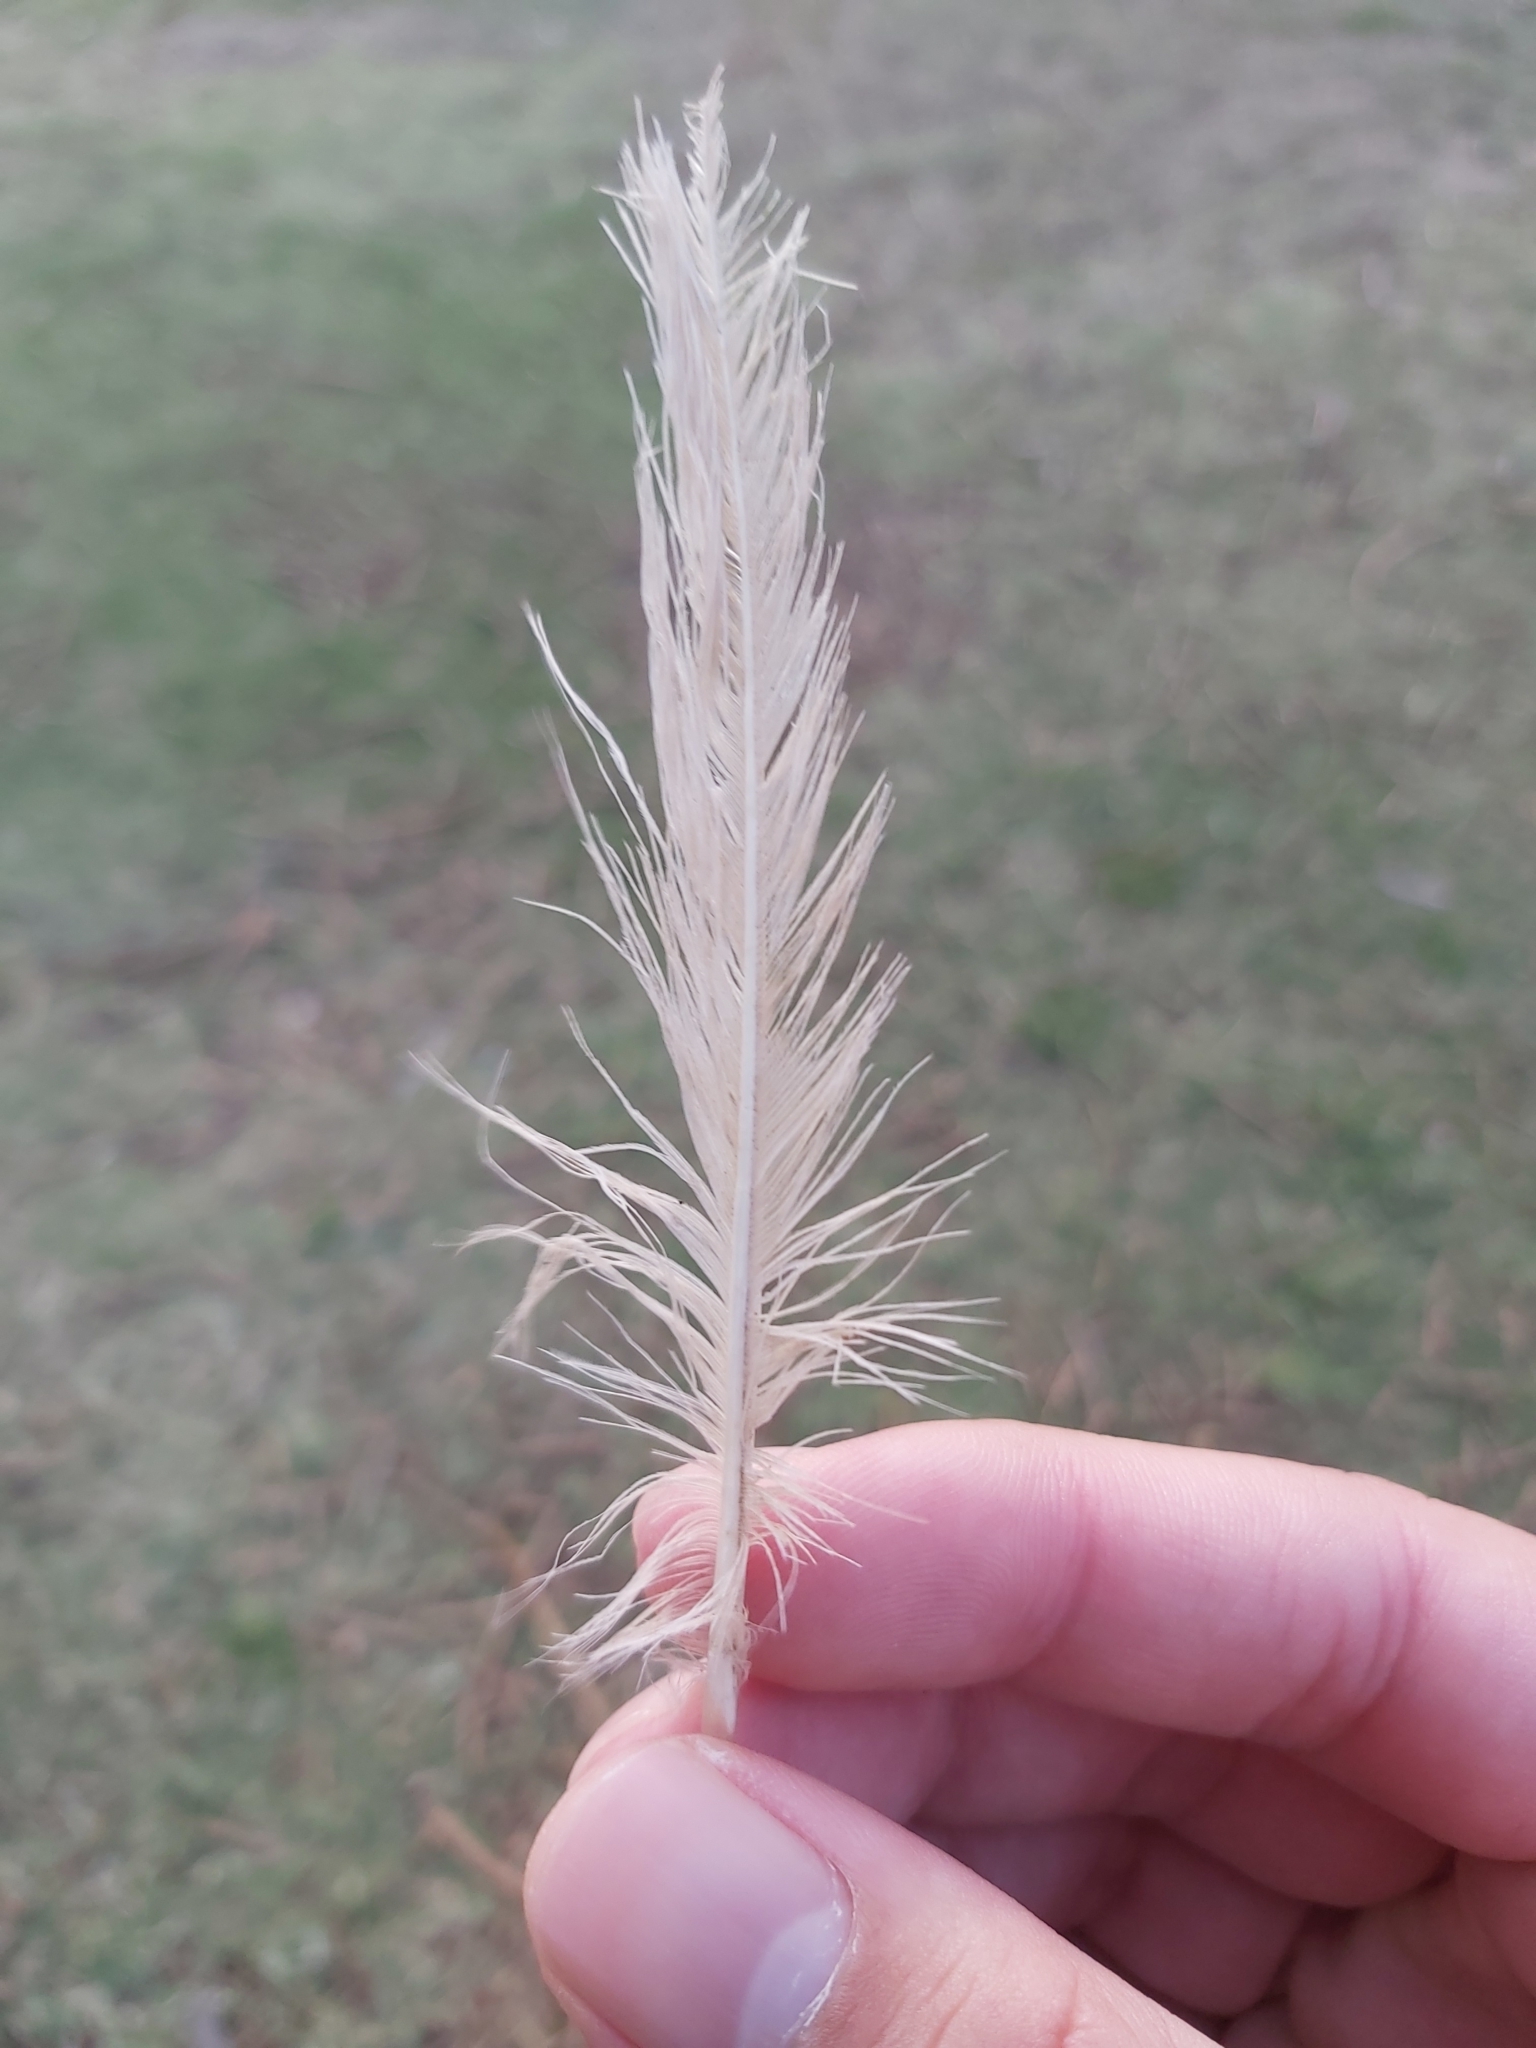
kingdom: Animalia
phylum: Chordata
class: Aves
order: Charadriiformes
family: Laridae
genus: Chroicocephalus
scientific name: Chroicocephalus novaehollandiae
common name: Silver gull
